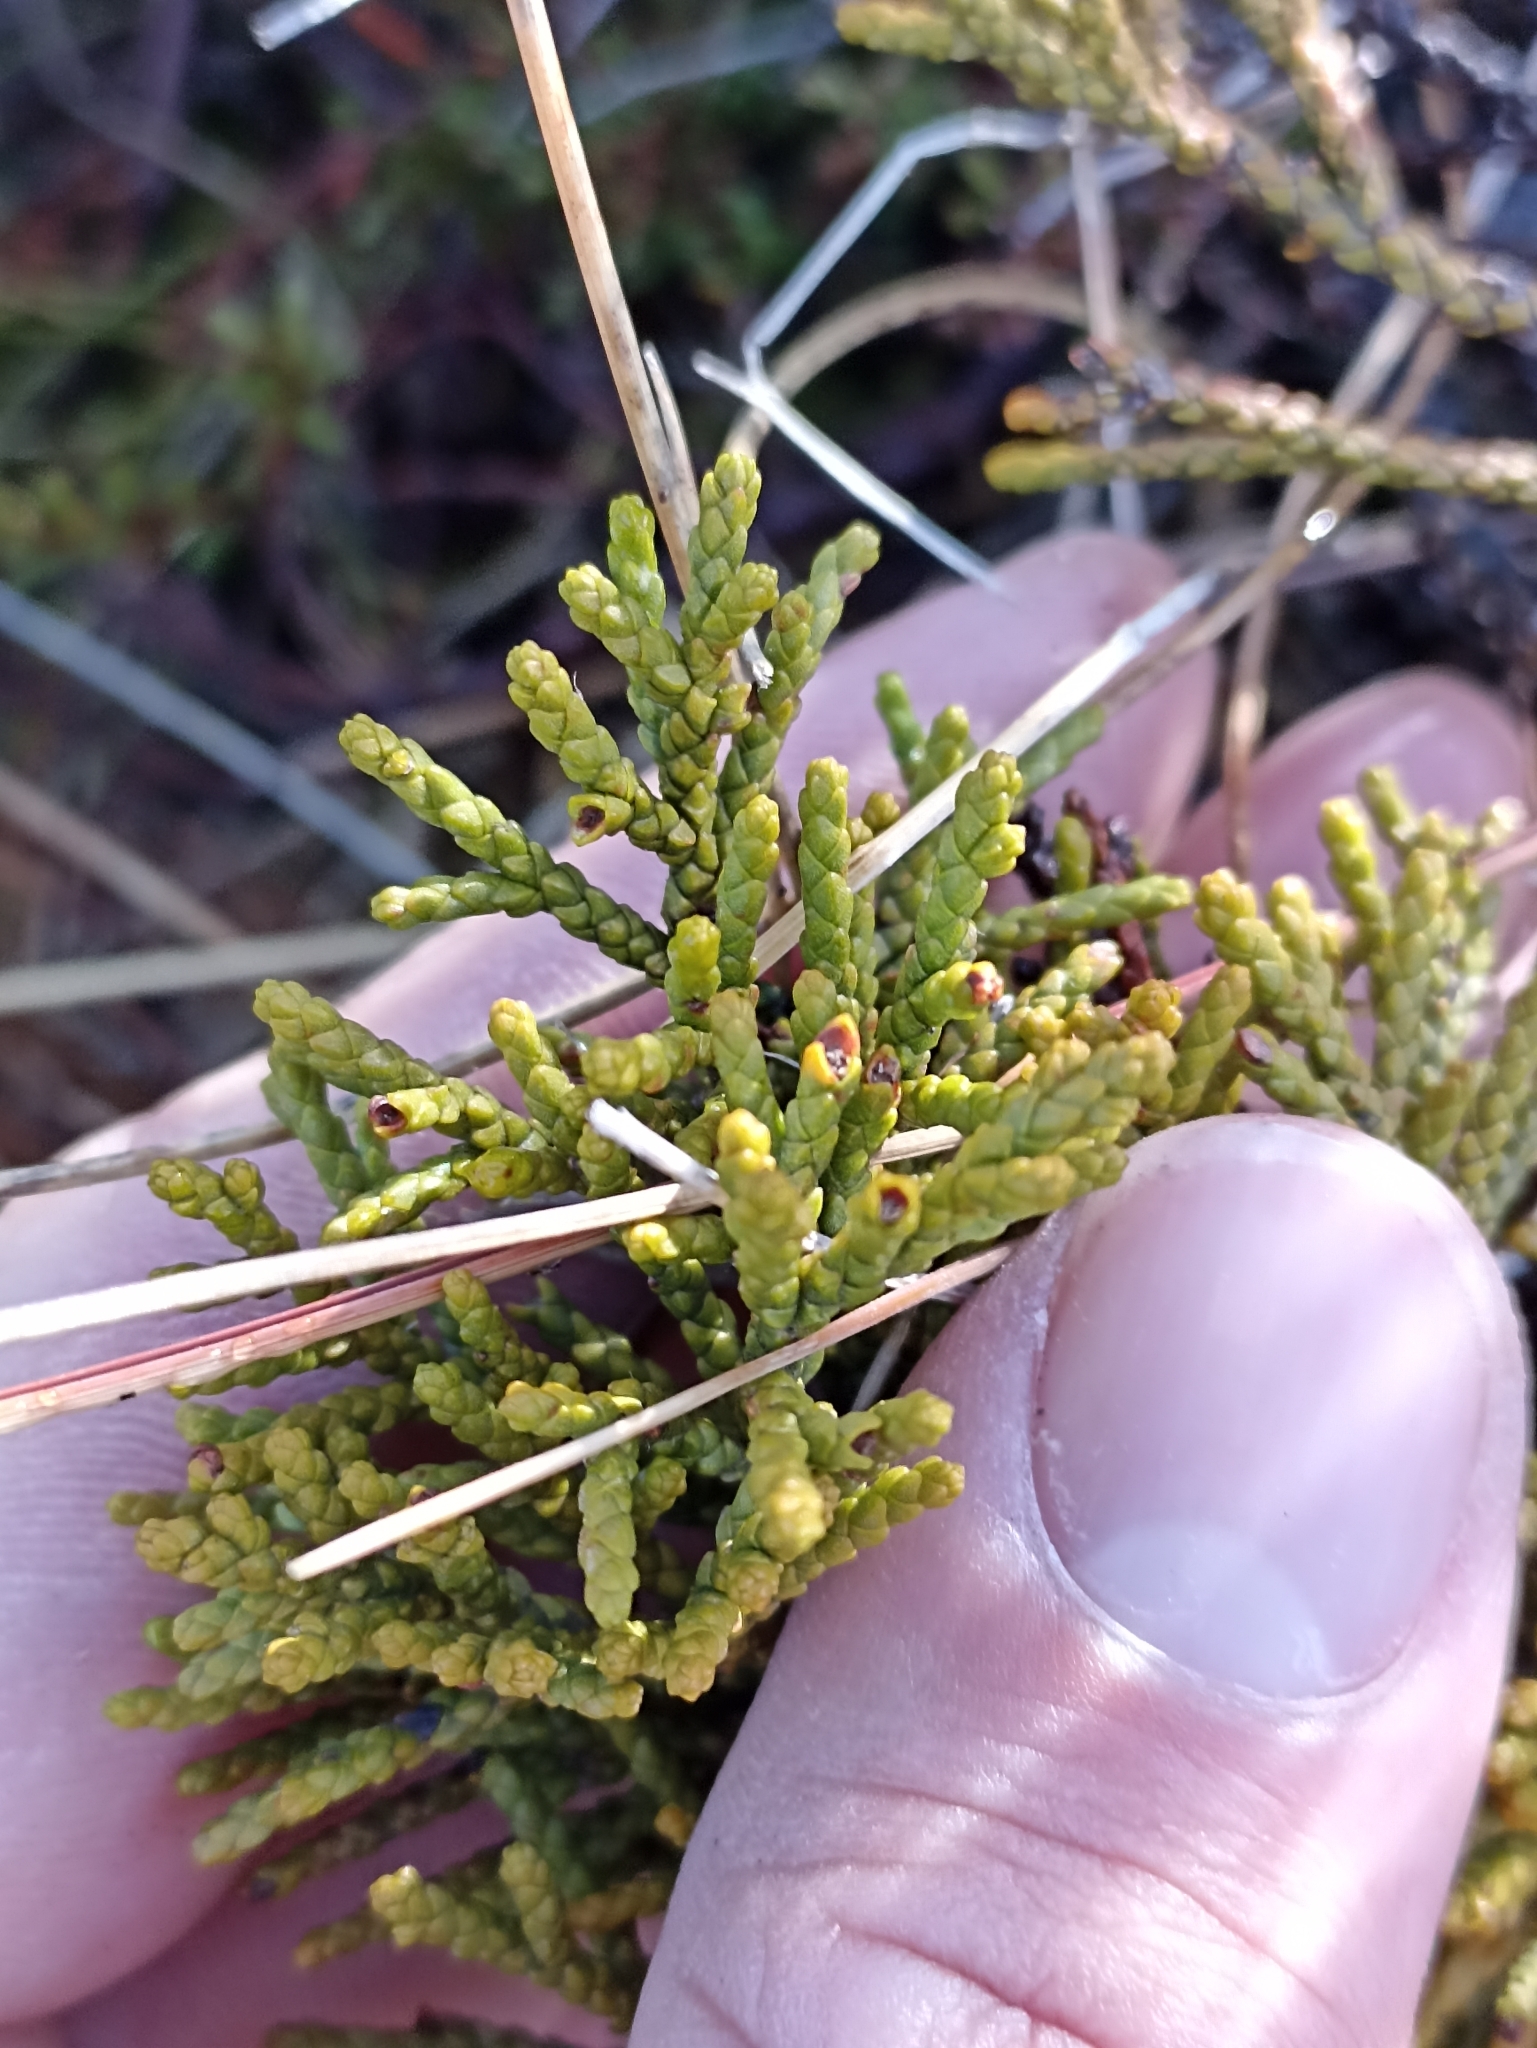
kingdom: Plantae
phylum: Tracheophyta
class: Pinopsida
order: Pinales
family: Podocarpaceae
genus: Halocarpus
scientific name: Halocarpus bidwillii
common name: Bog pine
